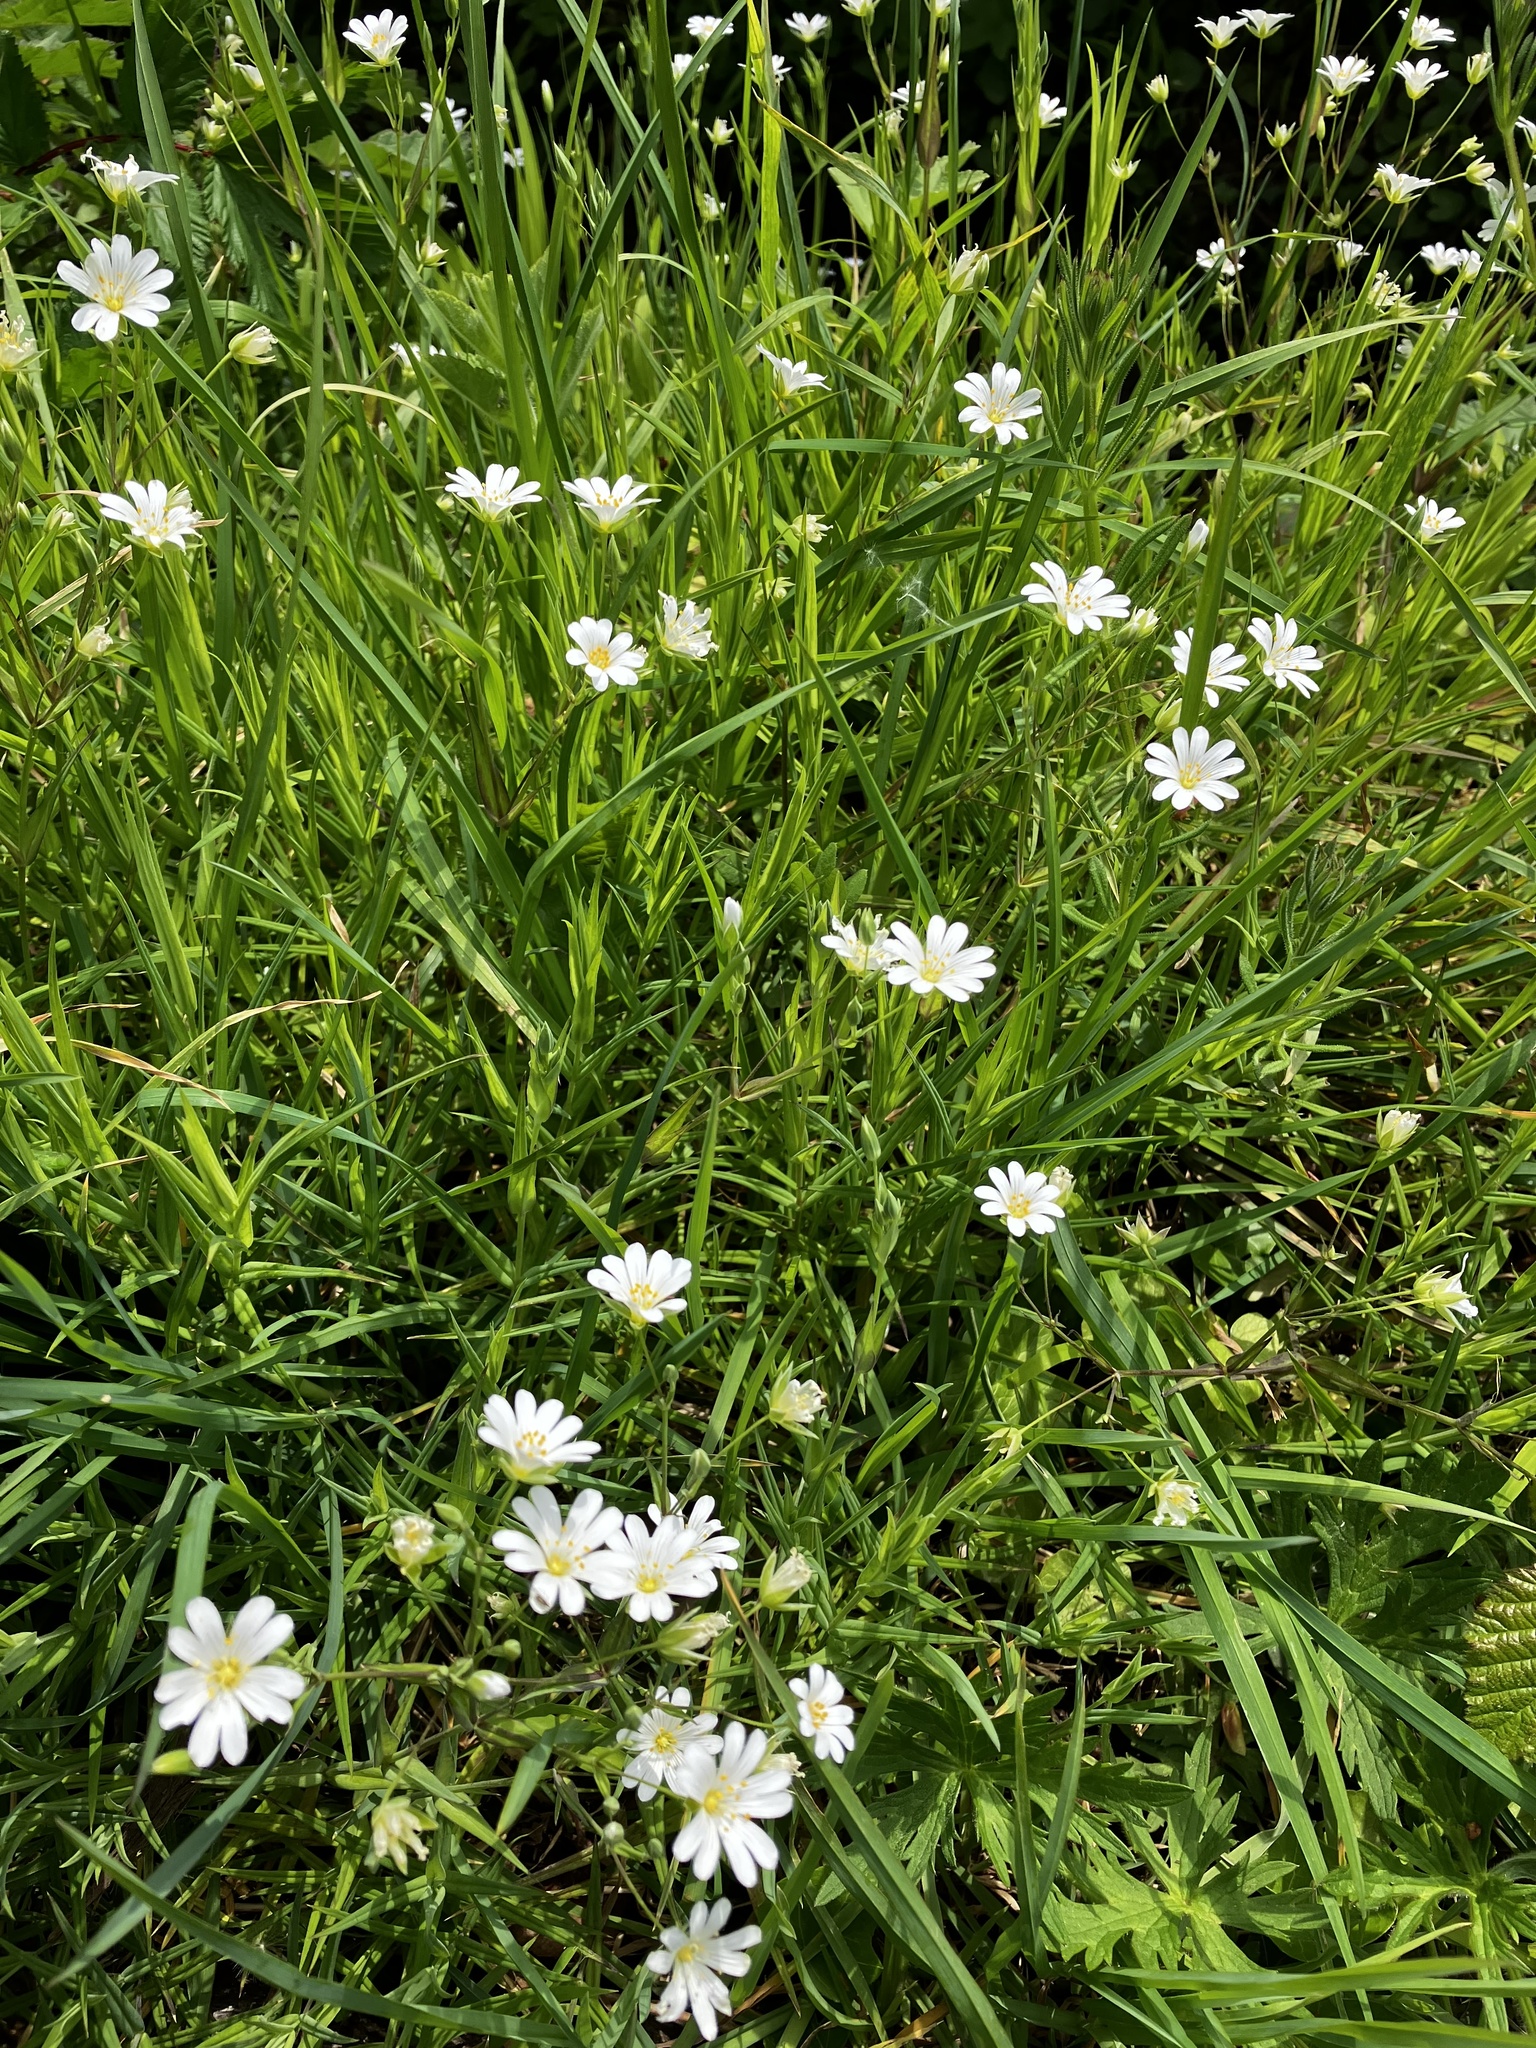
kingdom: Plantae
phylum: Tracheophyta
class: Magnoliopsida
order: Caryophyllales
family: Caryophyllaceae
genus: Rabelera
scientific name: Rabelera holostea
